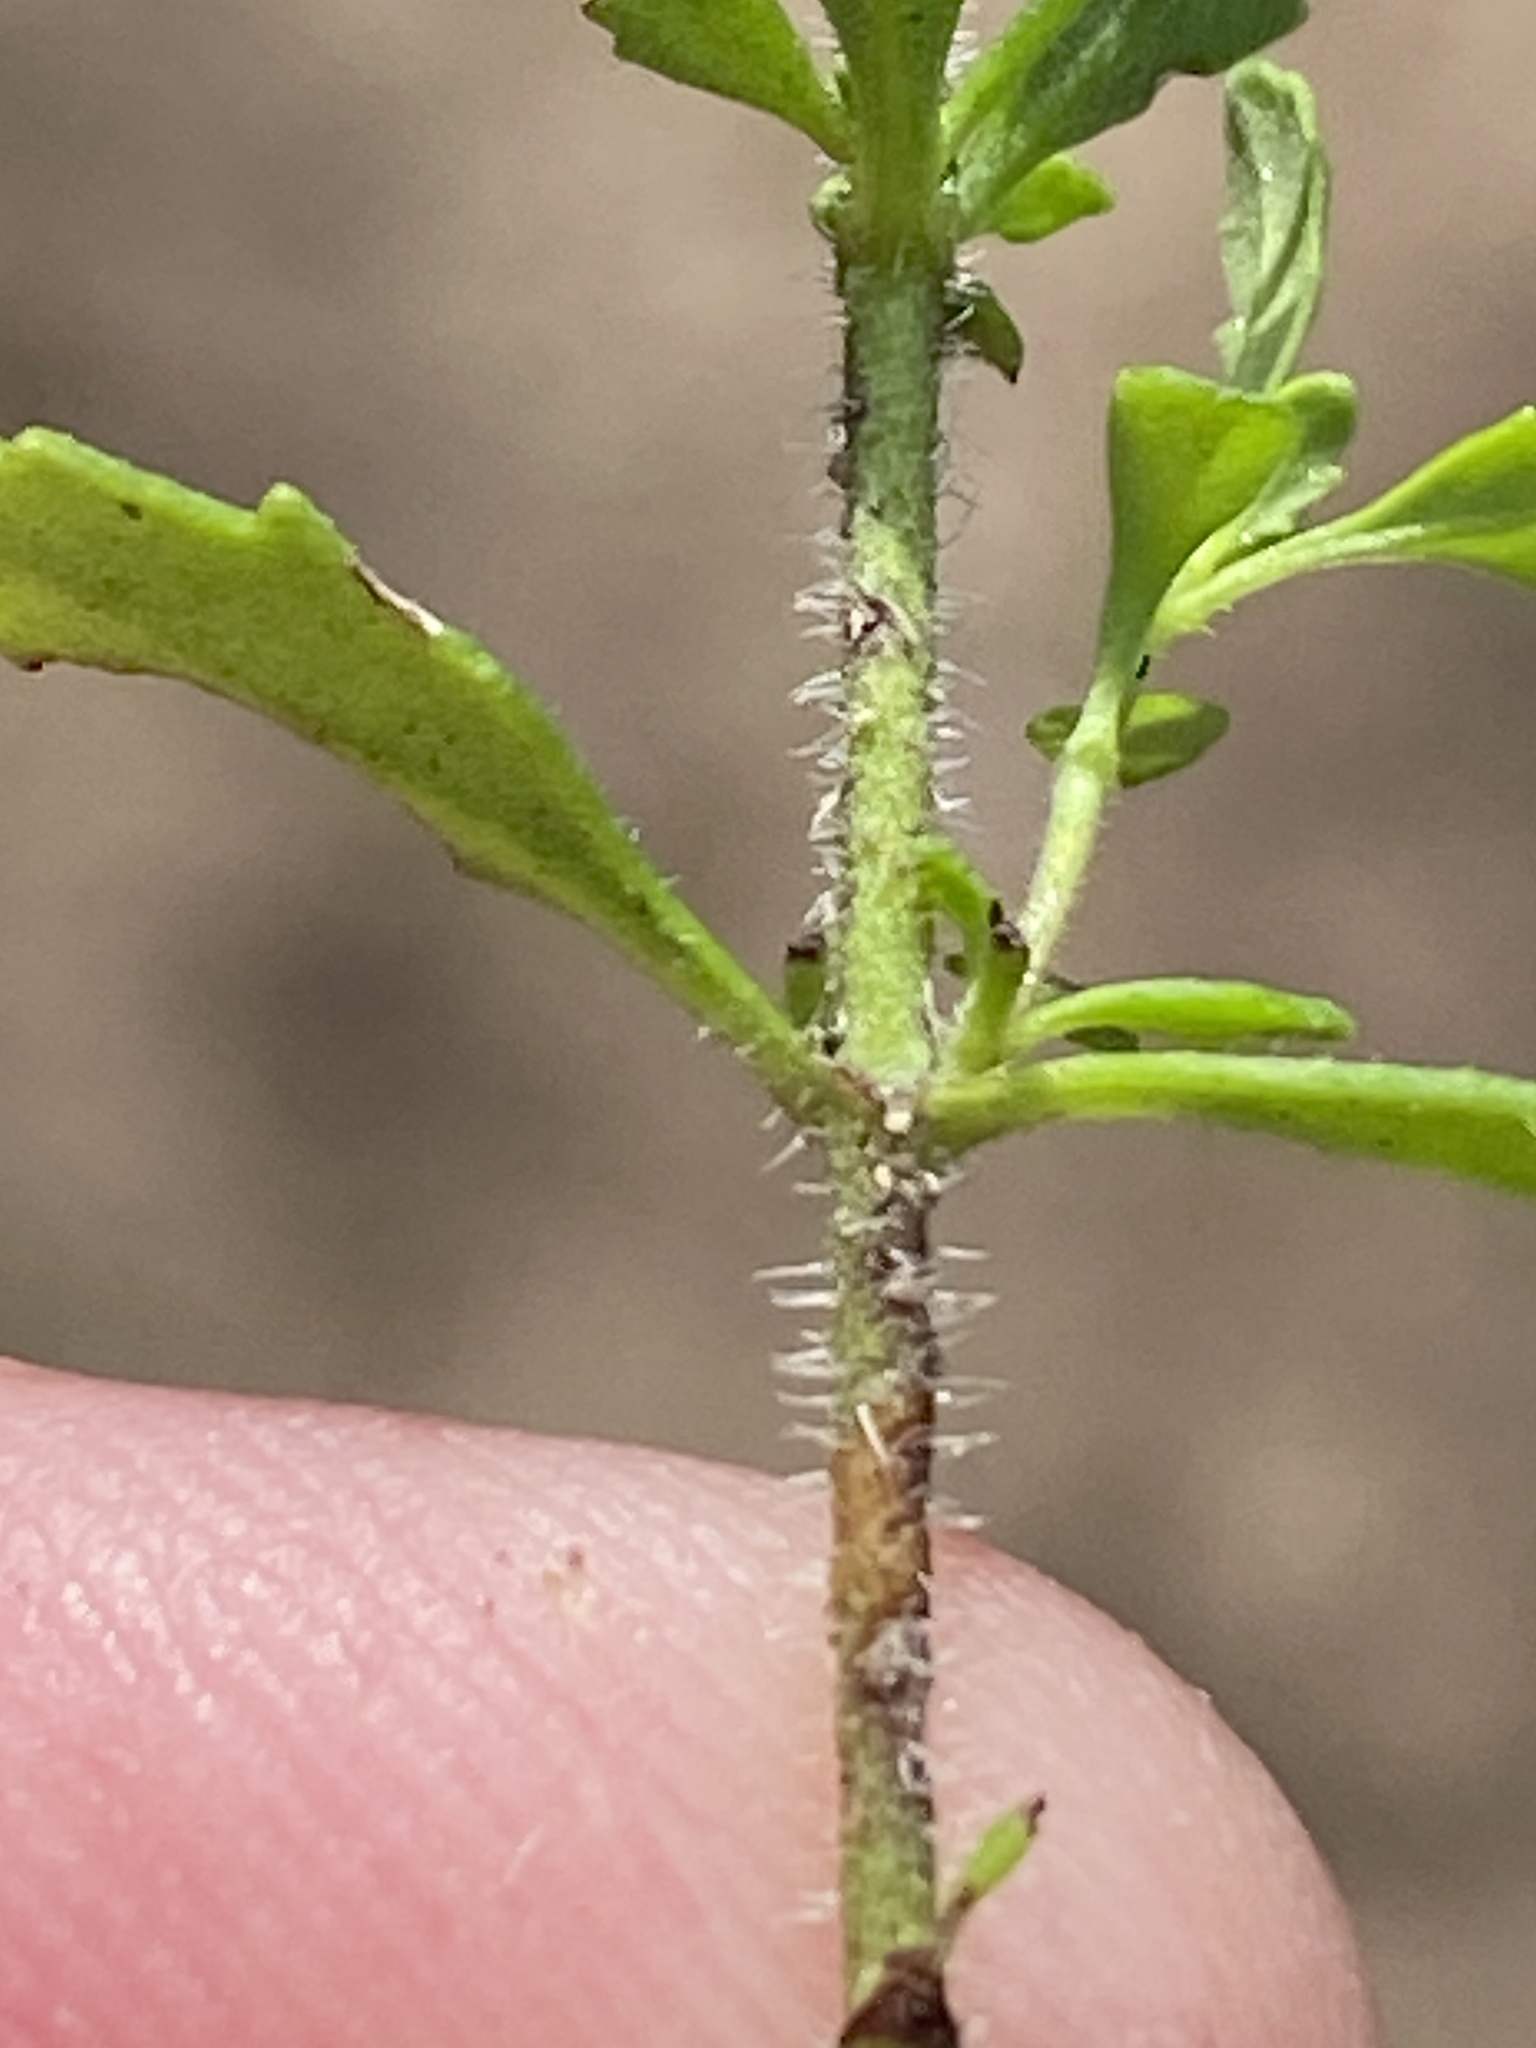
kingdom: Plantae
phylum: Tracheophyta
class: Magnoliopsida
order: Lamiales
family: Scrophulariaceae
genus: Chaenostoma
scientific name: Chaenostoma hispidum
